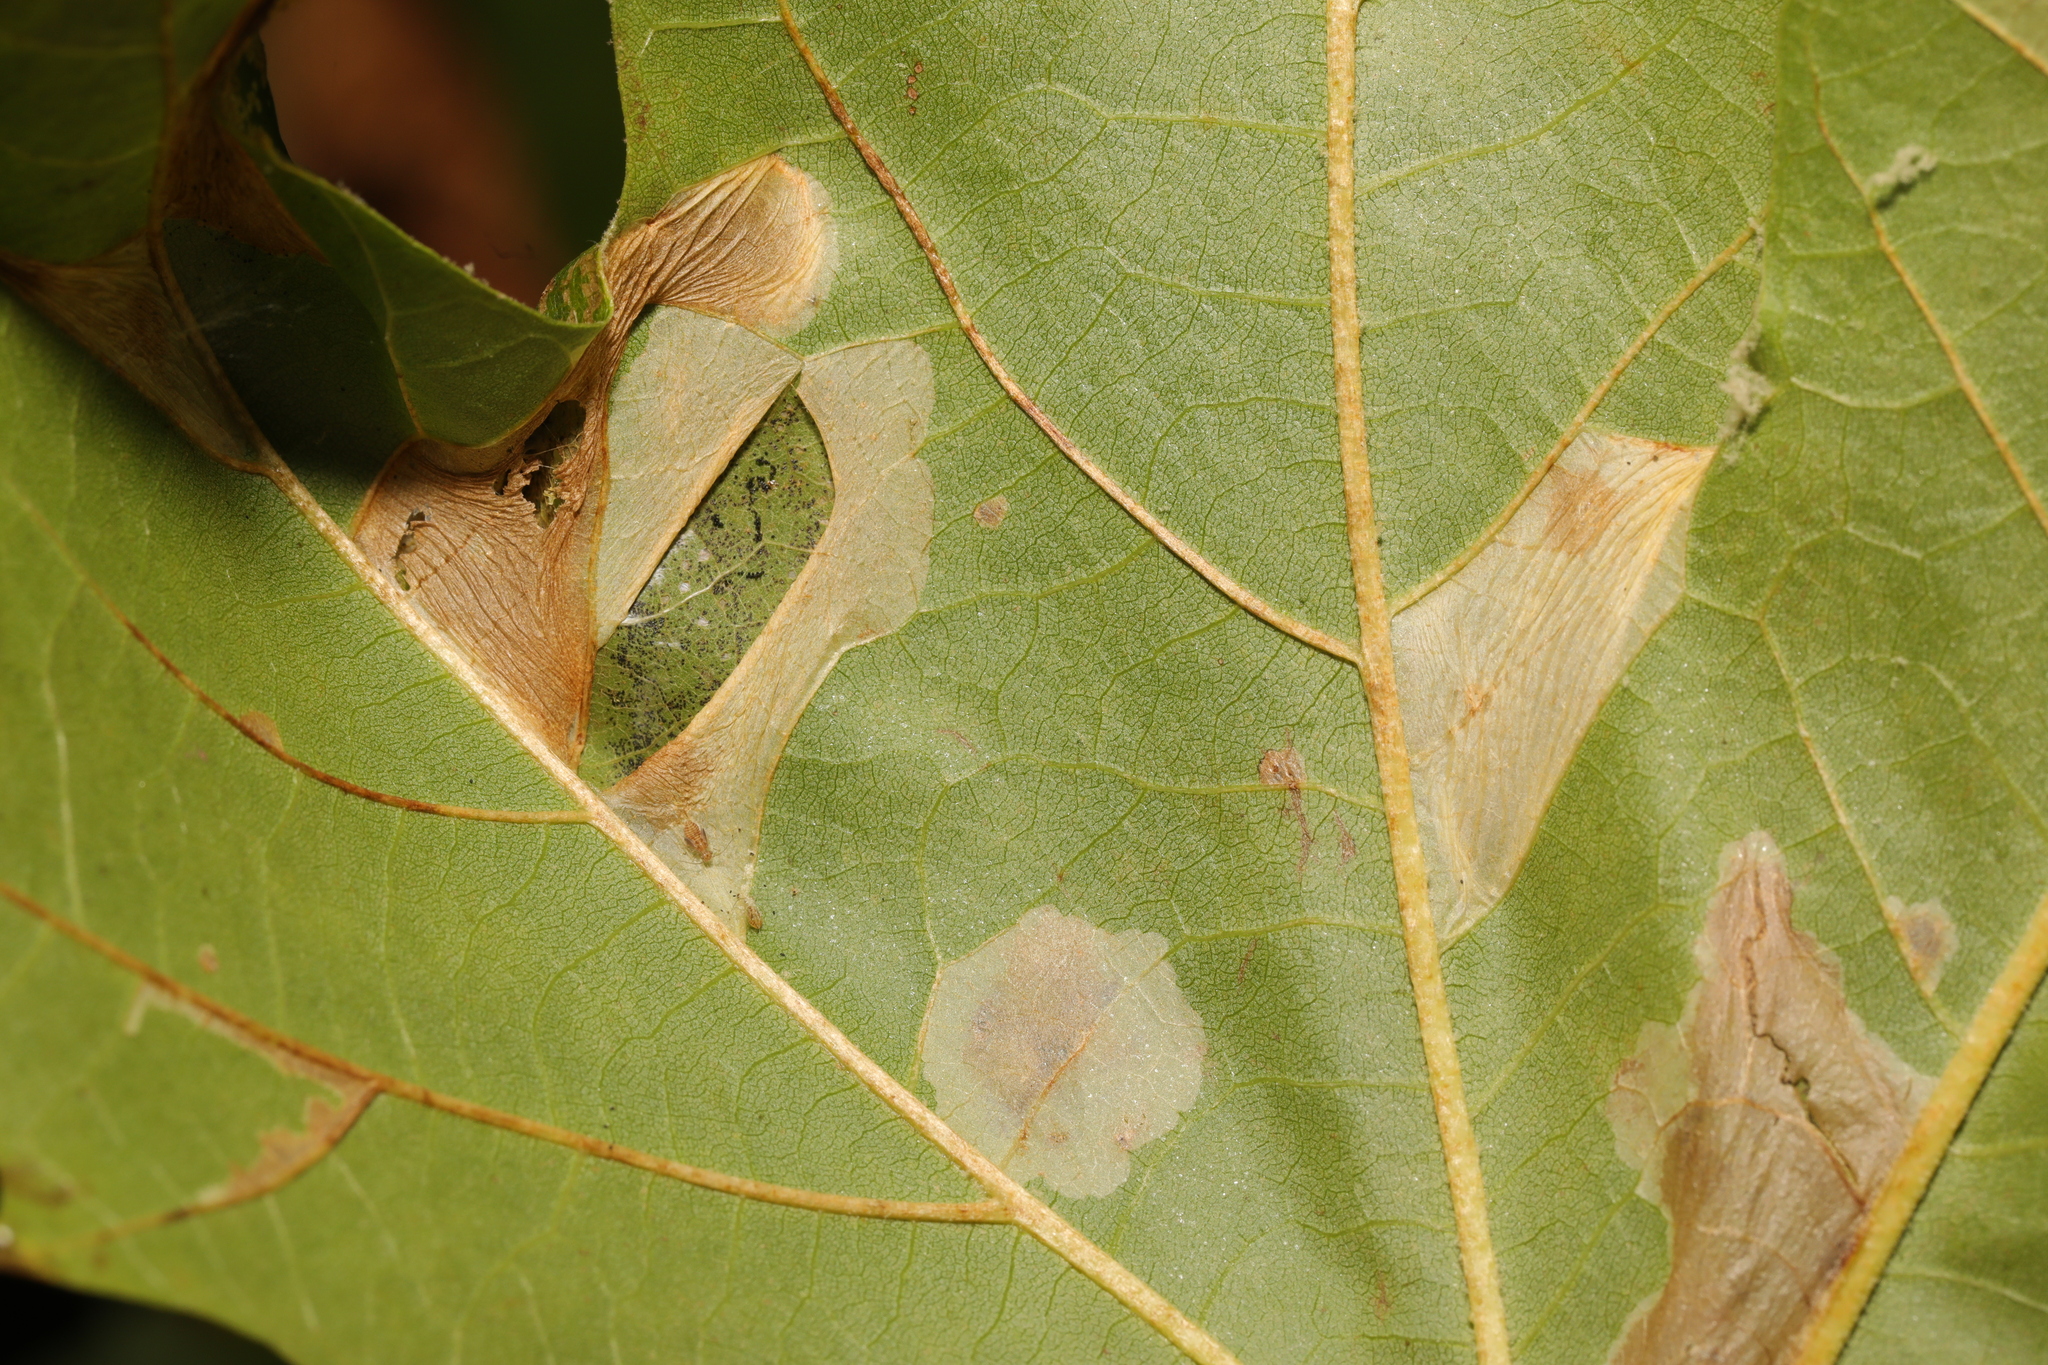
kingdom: Animalia
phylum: Arthropoda
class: Insecta
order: Lepidoptera
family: Gracillariidae
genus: Phyllonorycter
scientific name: Phyllonorycter platani
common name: London midget
